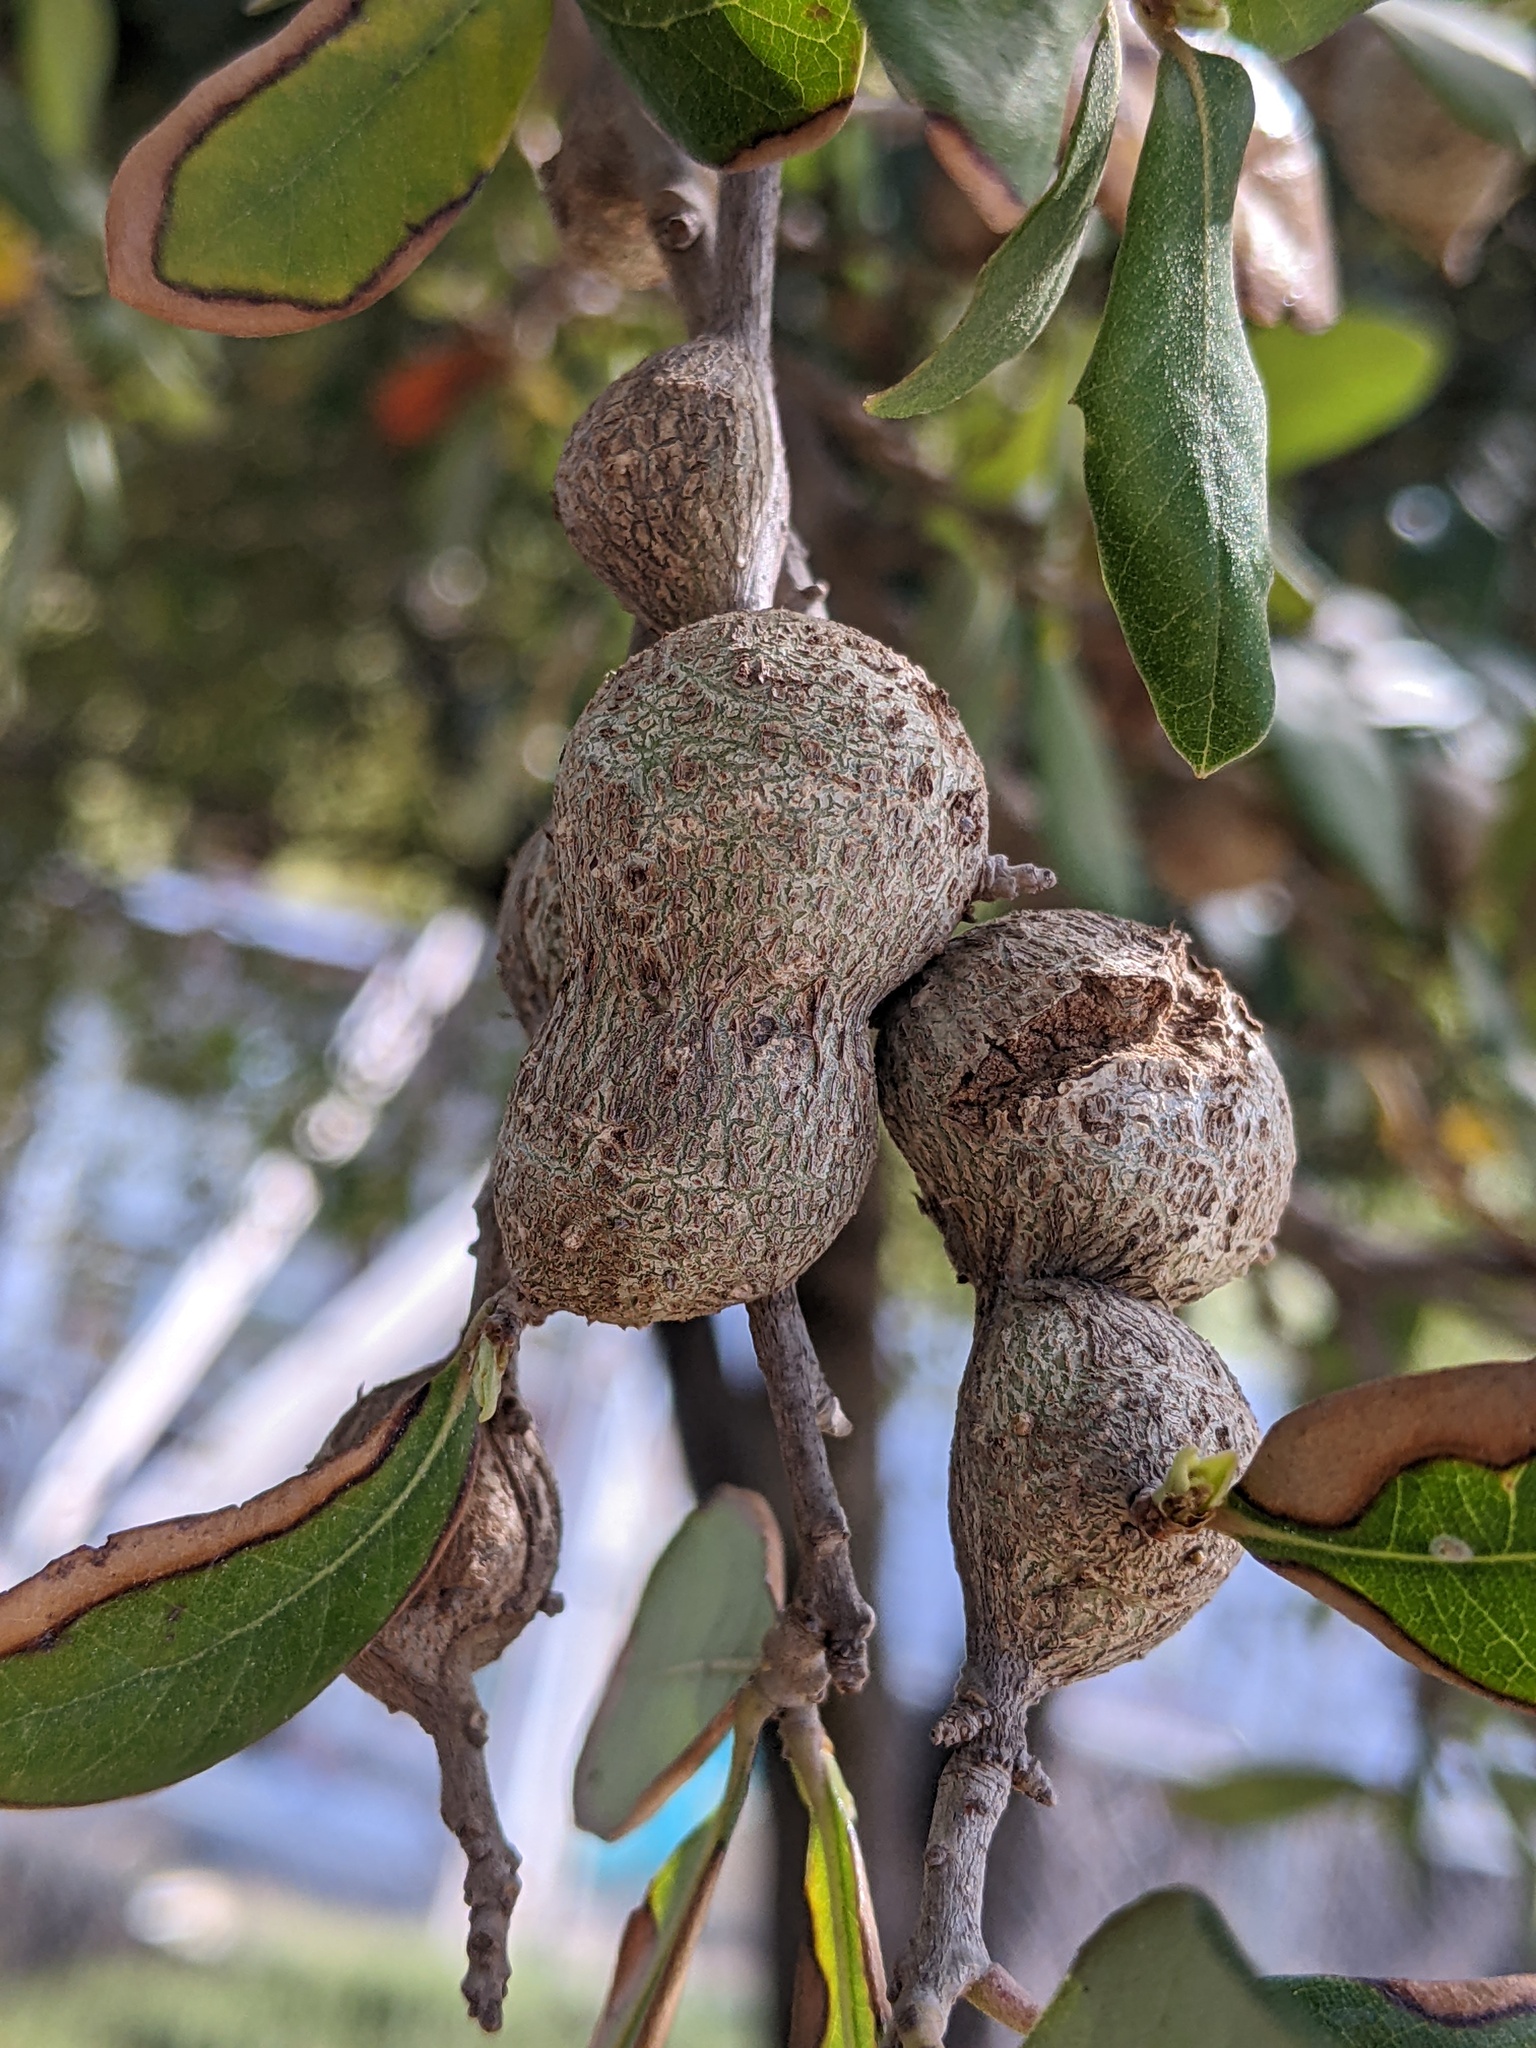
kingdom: Animalia
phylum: Arthropoda
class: Insecta
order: Hymenoptera
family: Cynipidae
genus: Callirhytis
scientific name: Callirhytis
